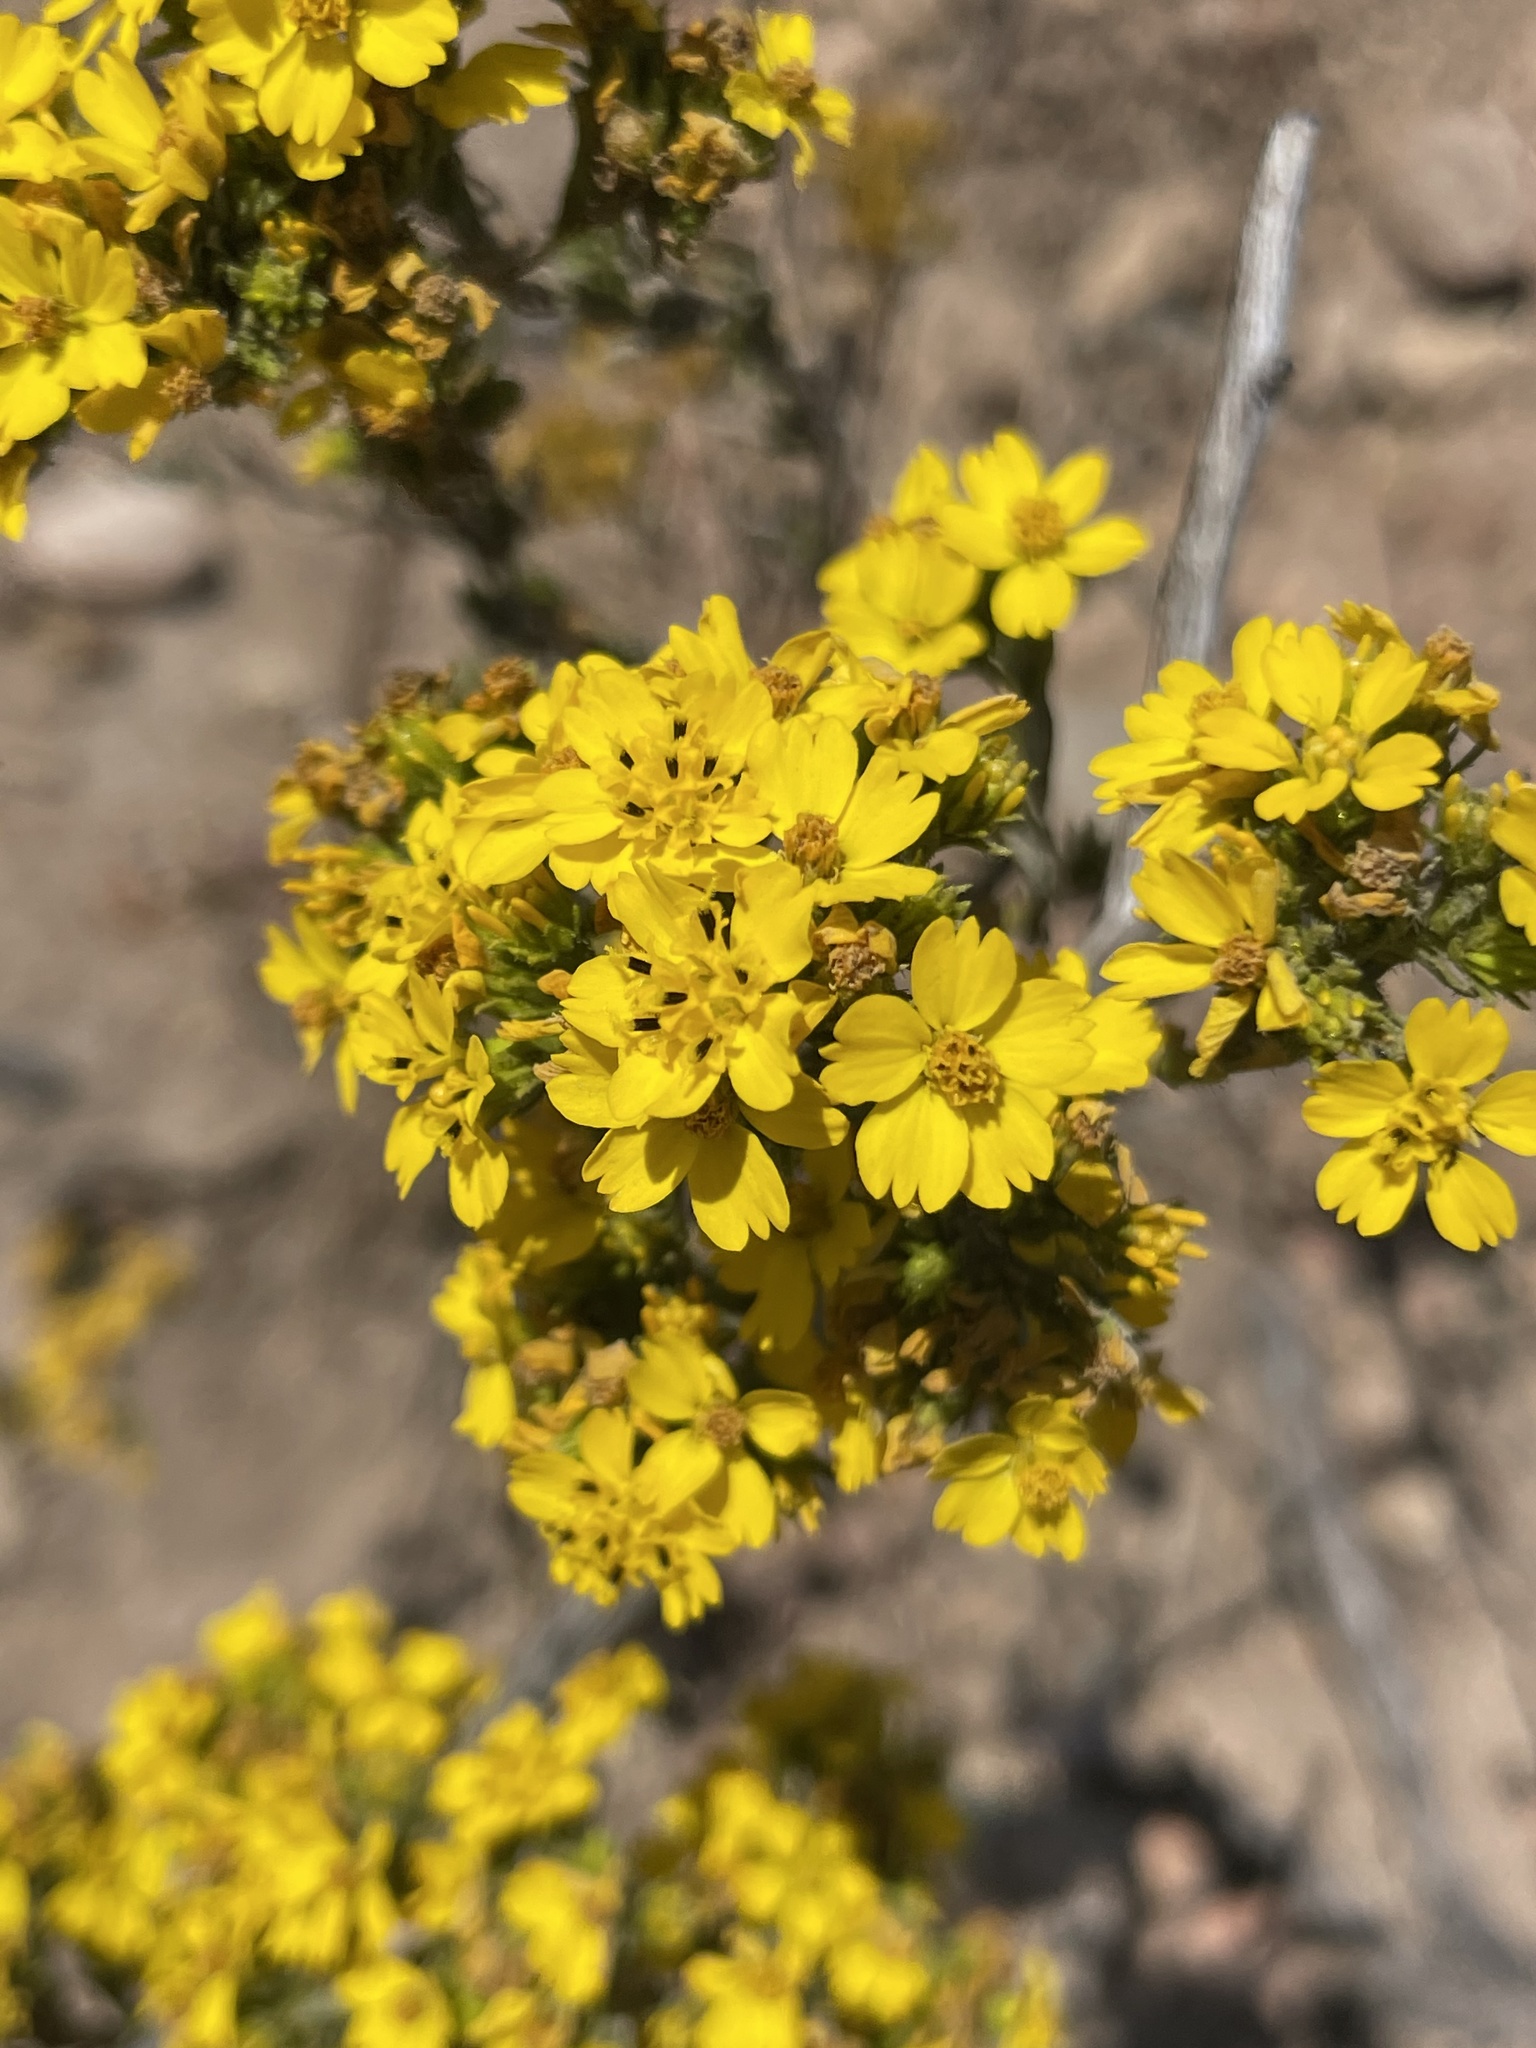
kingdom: Plantae
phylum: Tracheophyta
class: Magnoliopsida
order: Asterales
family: Asteraceae
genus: Deinandra
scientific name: Deinandra fasciculata
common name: Clustered tarweed
